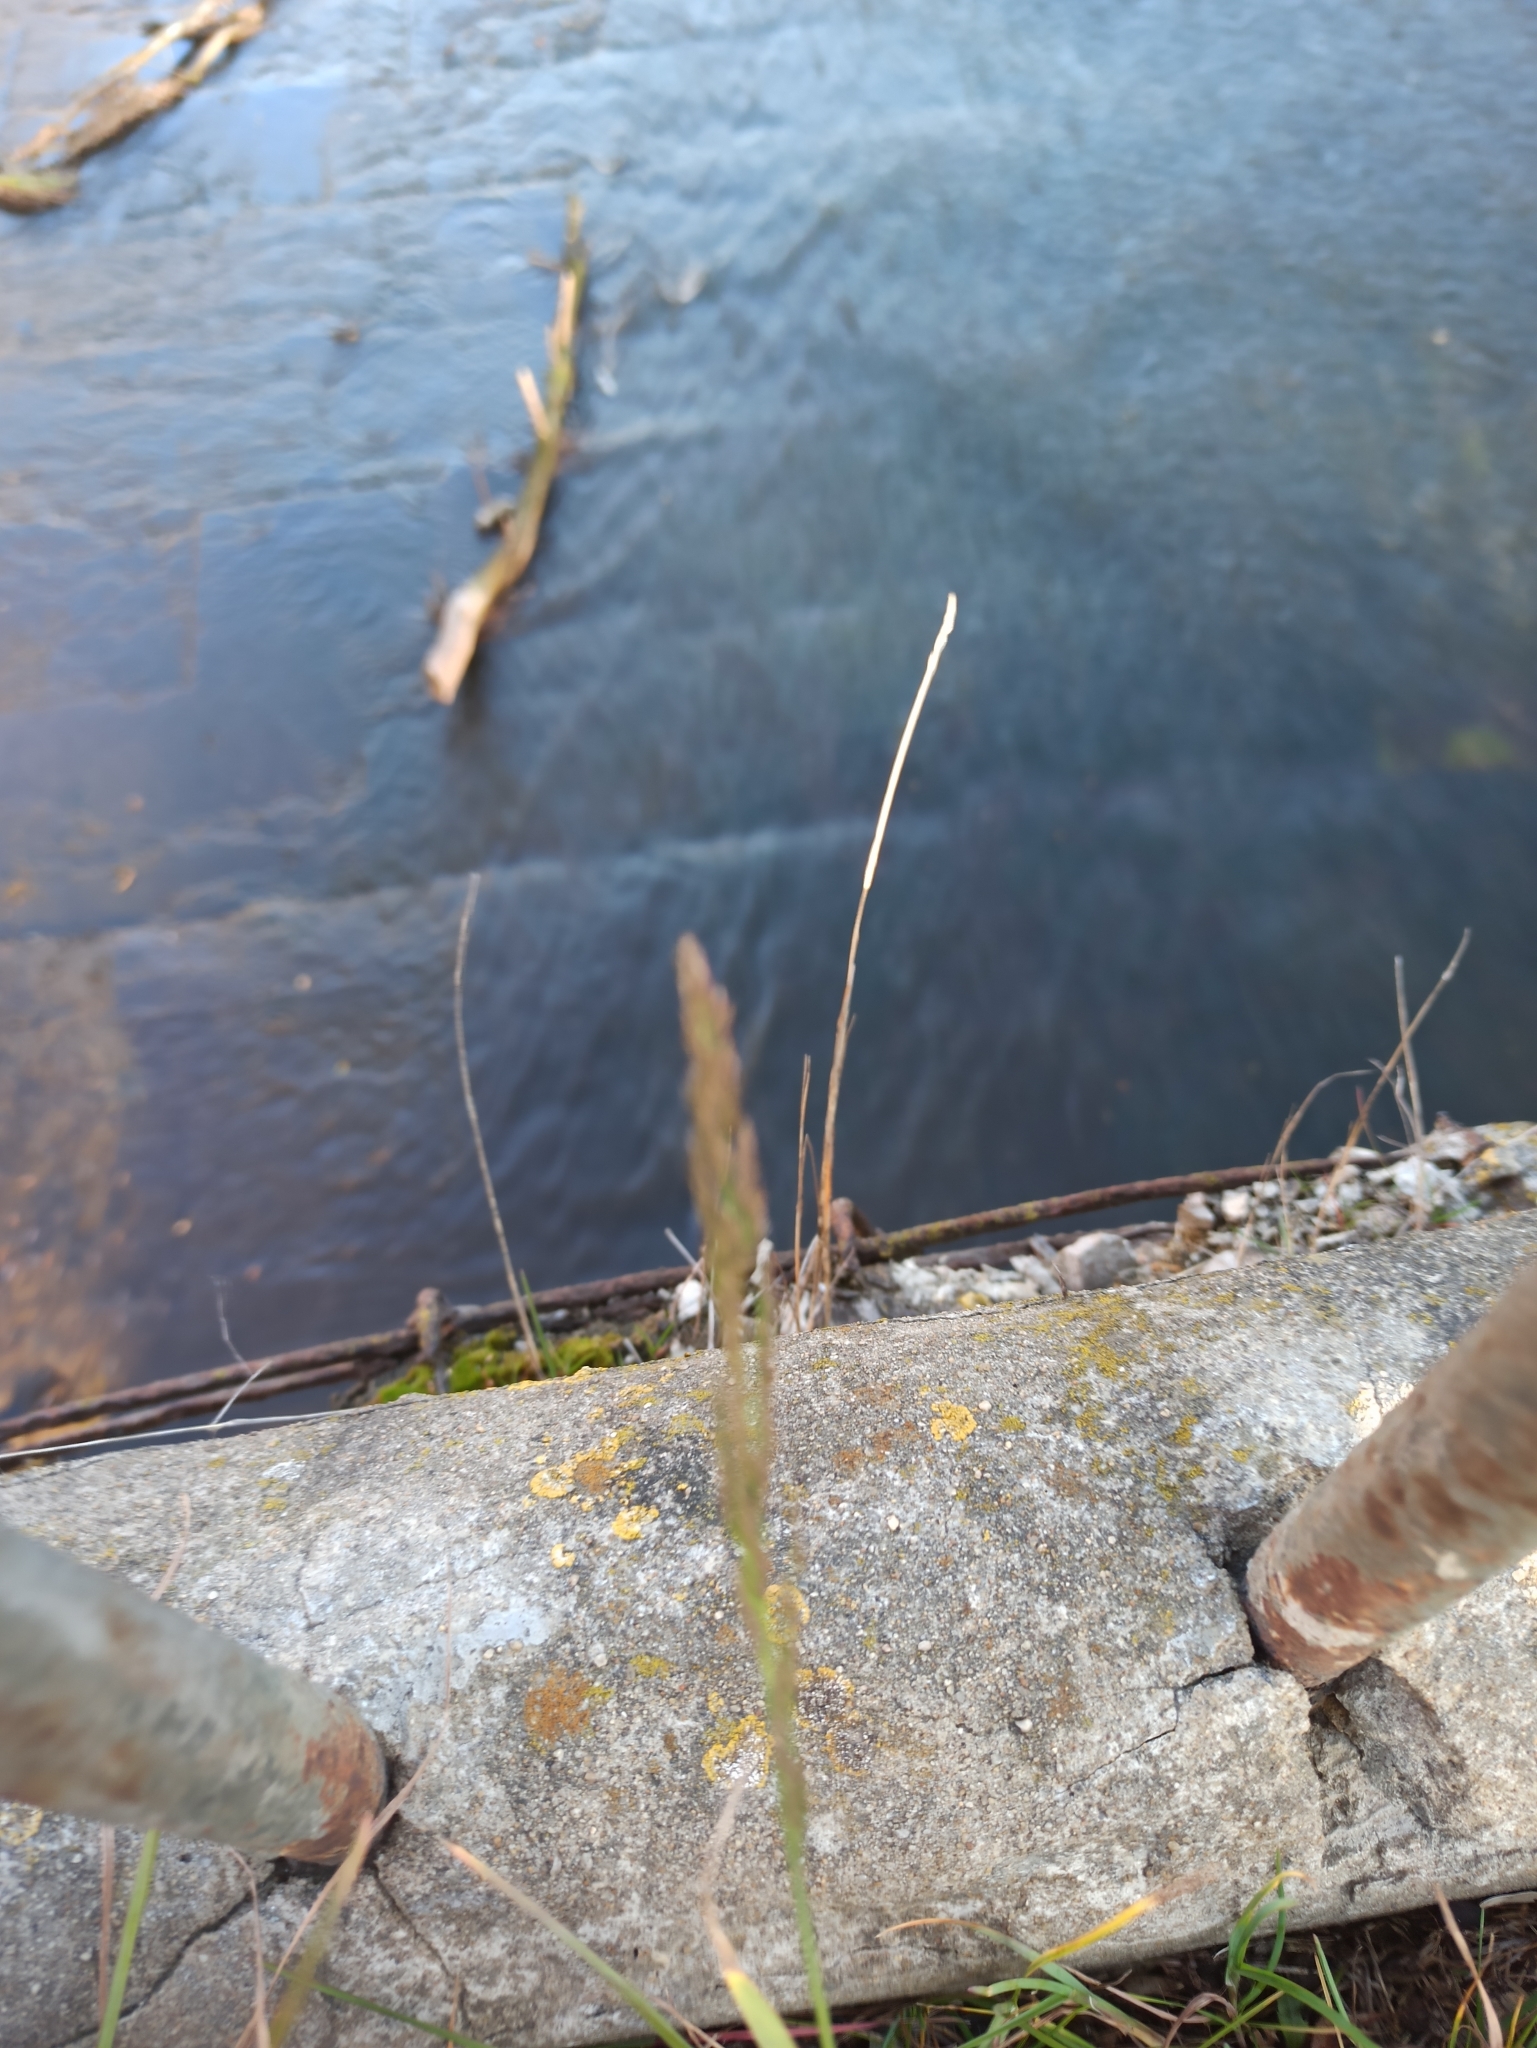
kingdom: Plantae
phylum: Tracheophyta
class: Liliopsida
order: Poales
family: Poaceae
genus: Poa
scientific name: Poa compressa
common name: Canada bluegrass
